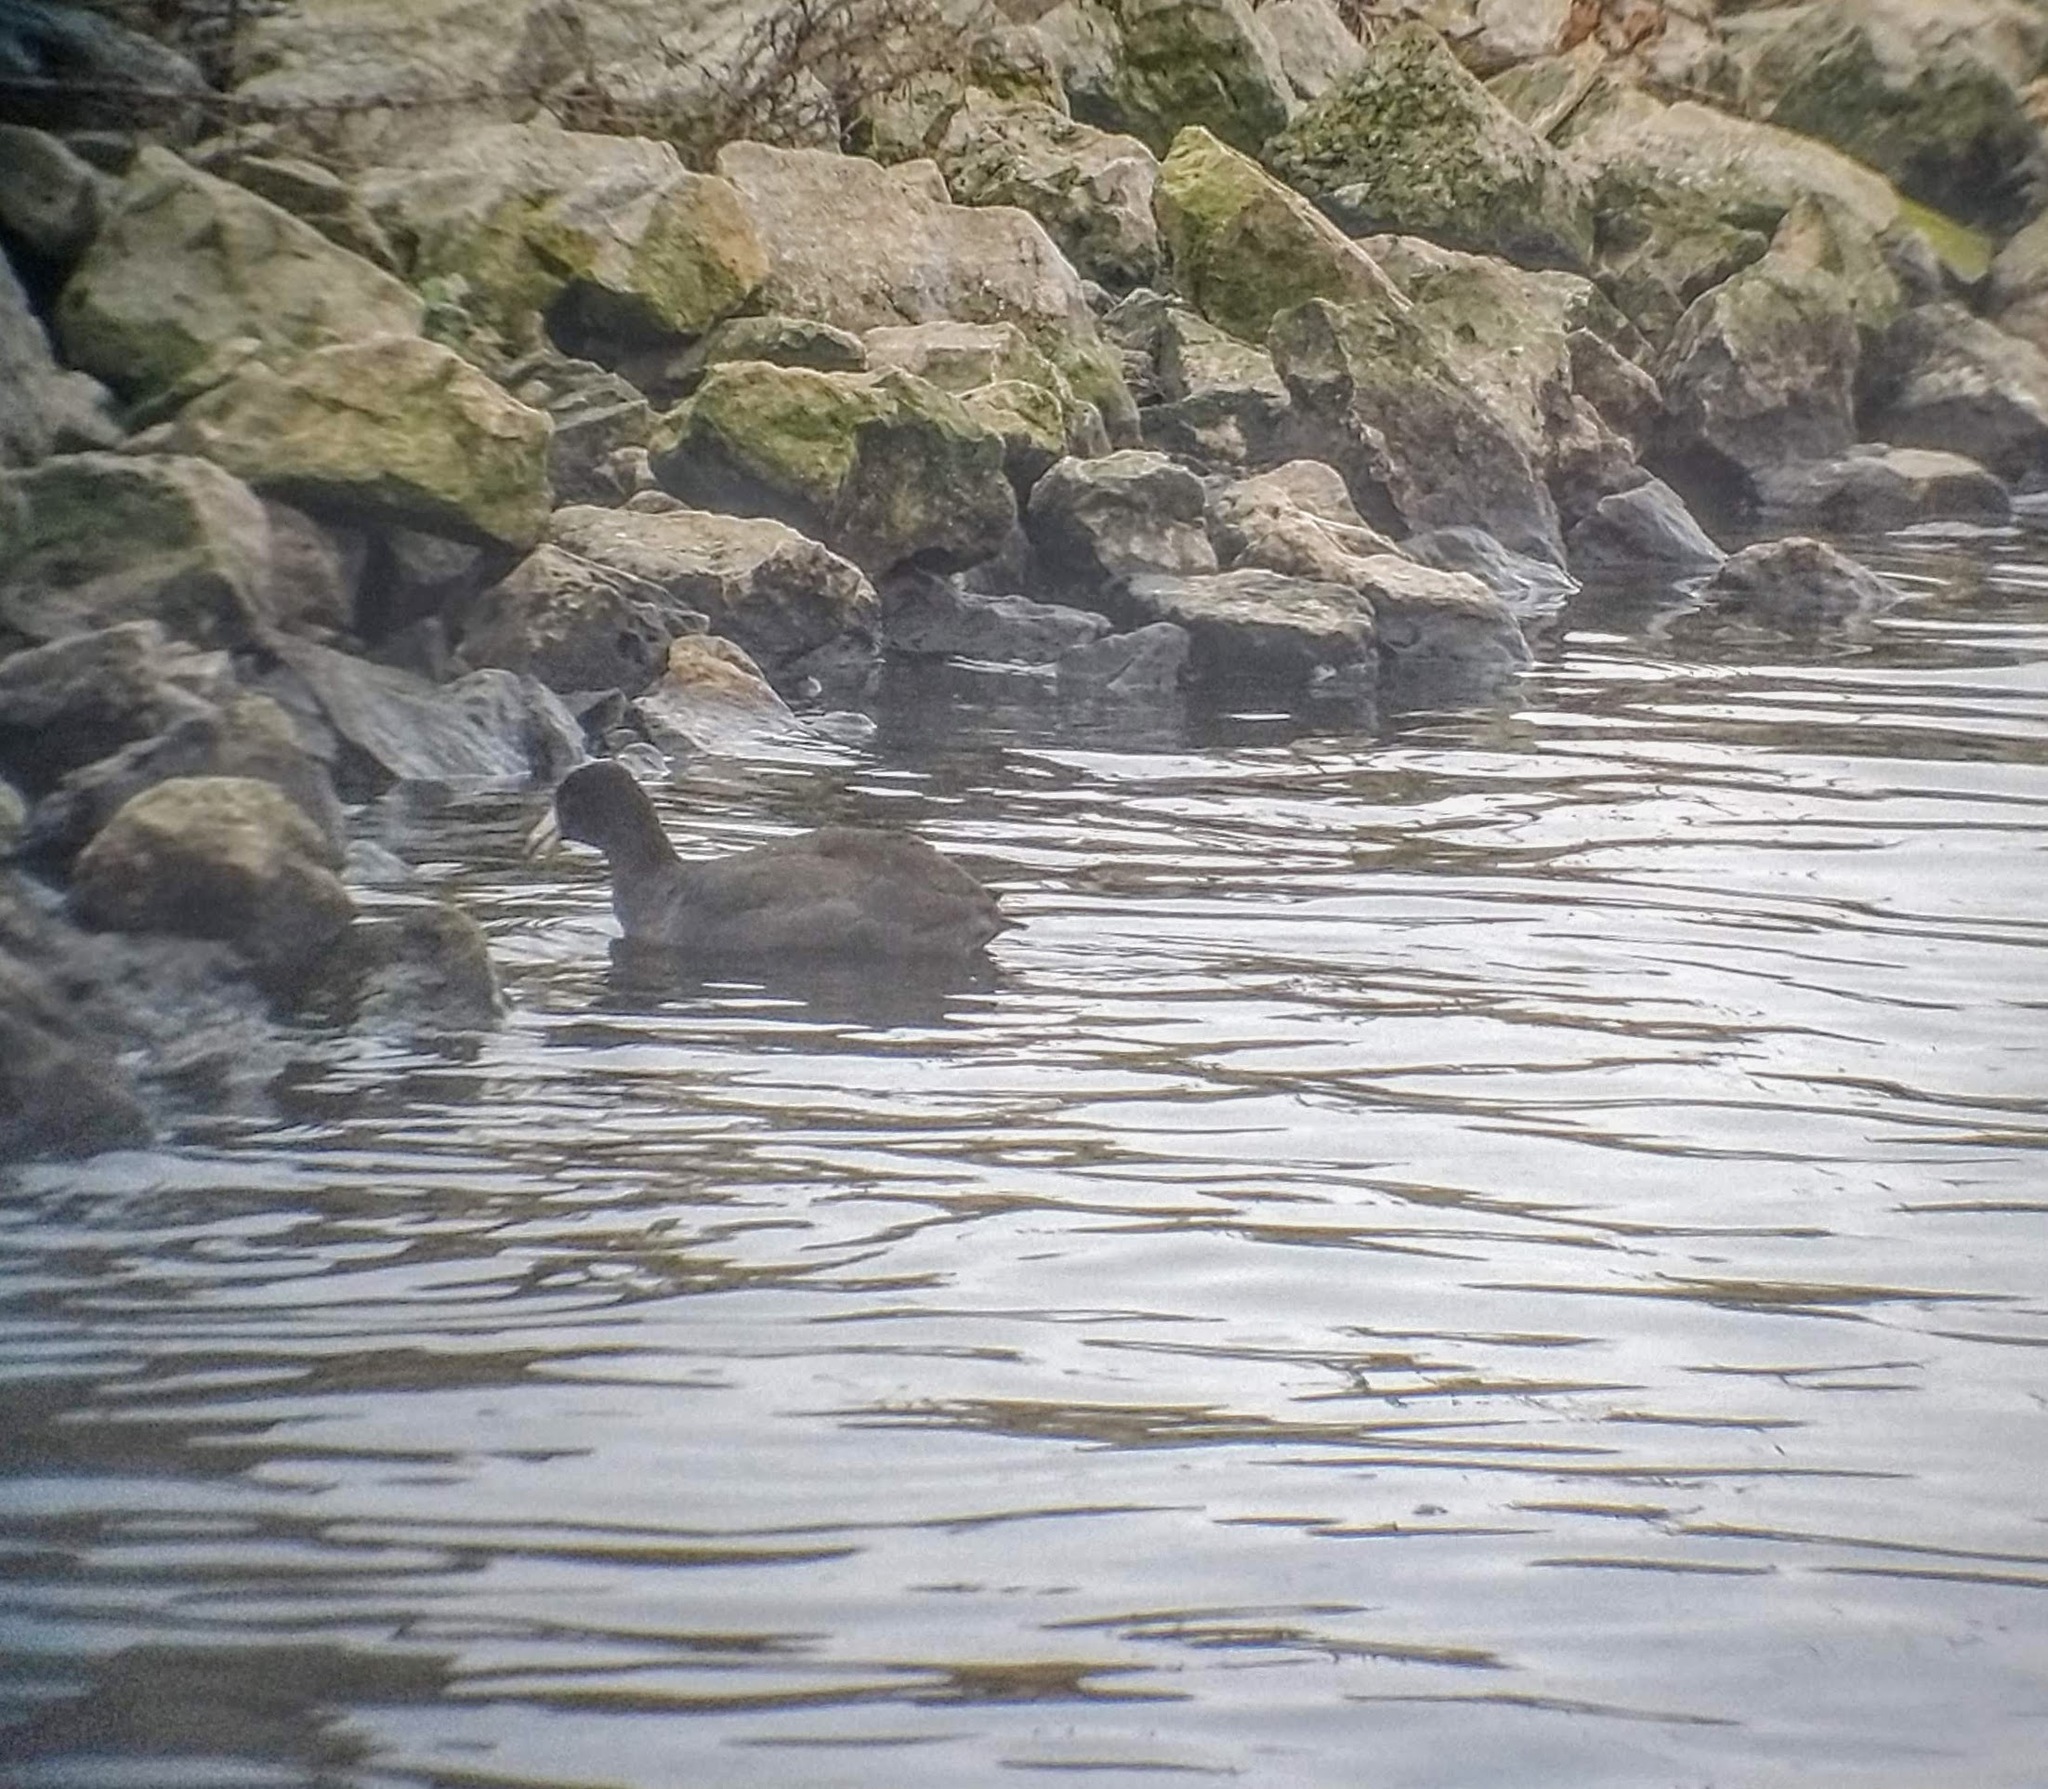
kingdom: Animalia
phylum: Chordata
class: Aves
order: Gruiformes
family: Rallidae
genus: Fulica
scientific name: Fulica americana
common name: American coot
